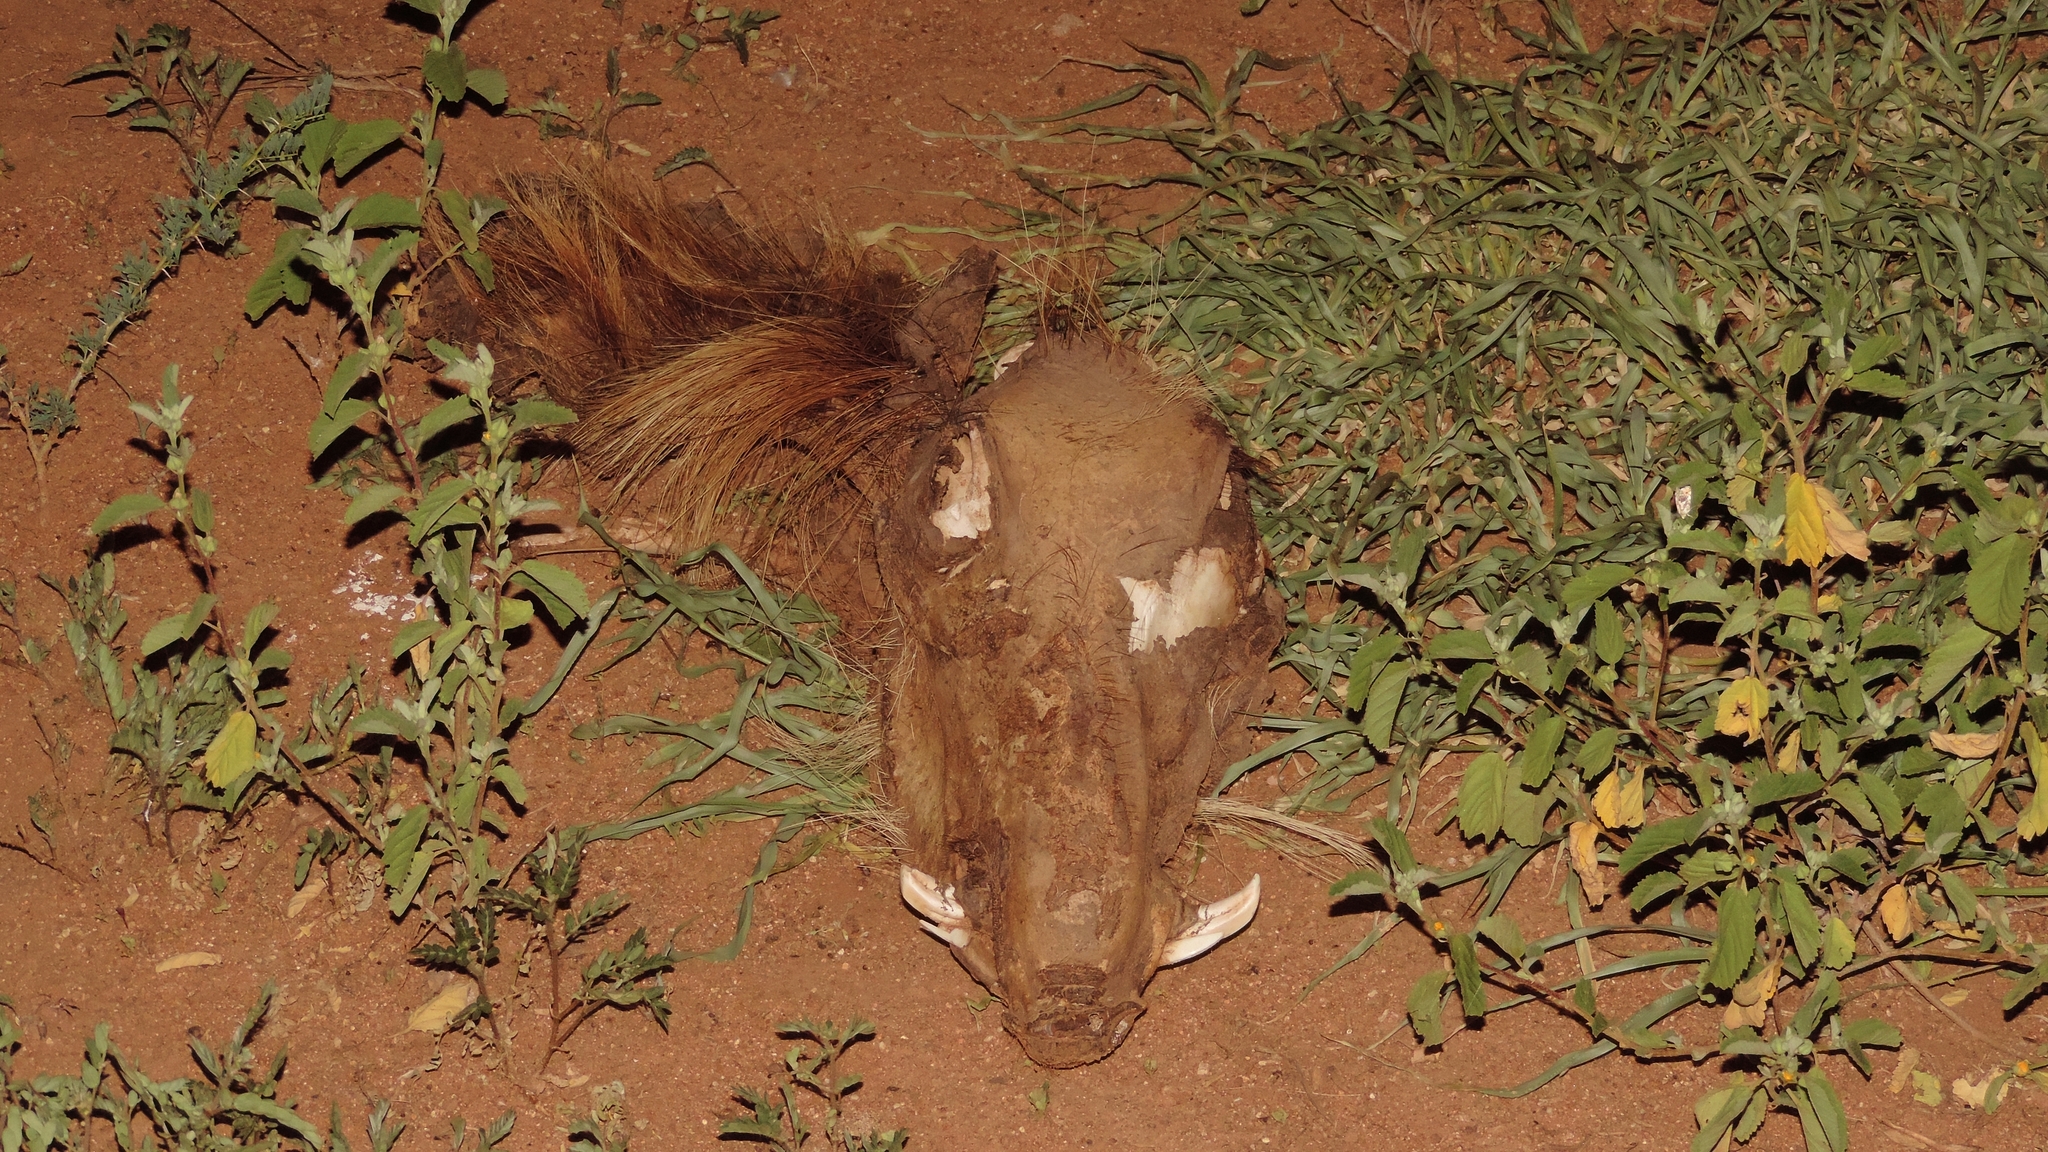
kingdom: Animalia
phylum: Chordata
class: Mammalia
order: Artiodactyla
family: Suidae
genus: Phacochoerus
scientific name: Phacochoerus africanus
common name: Common warthog
